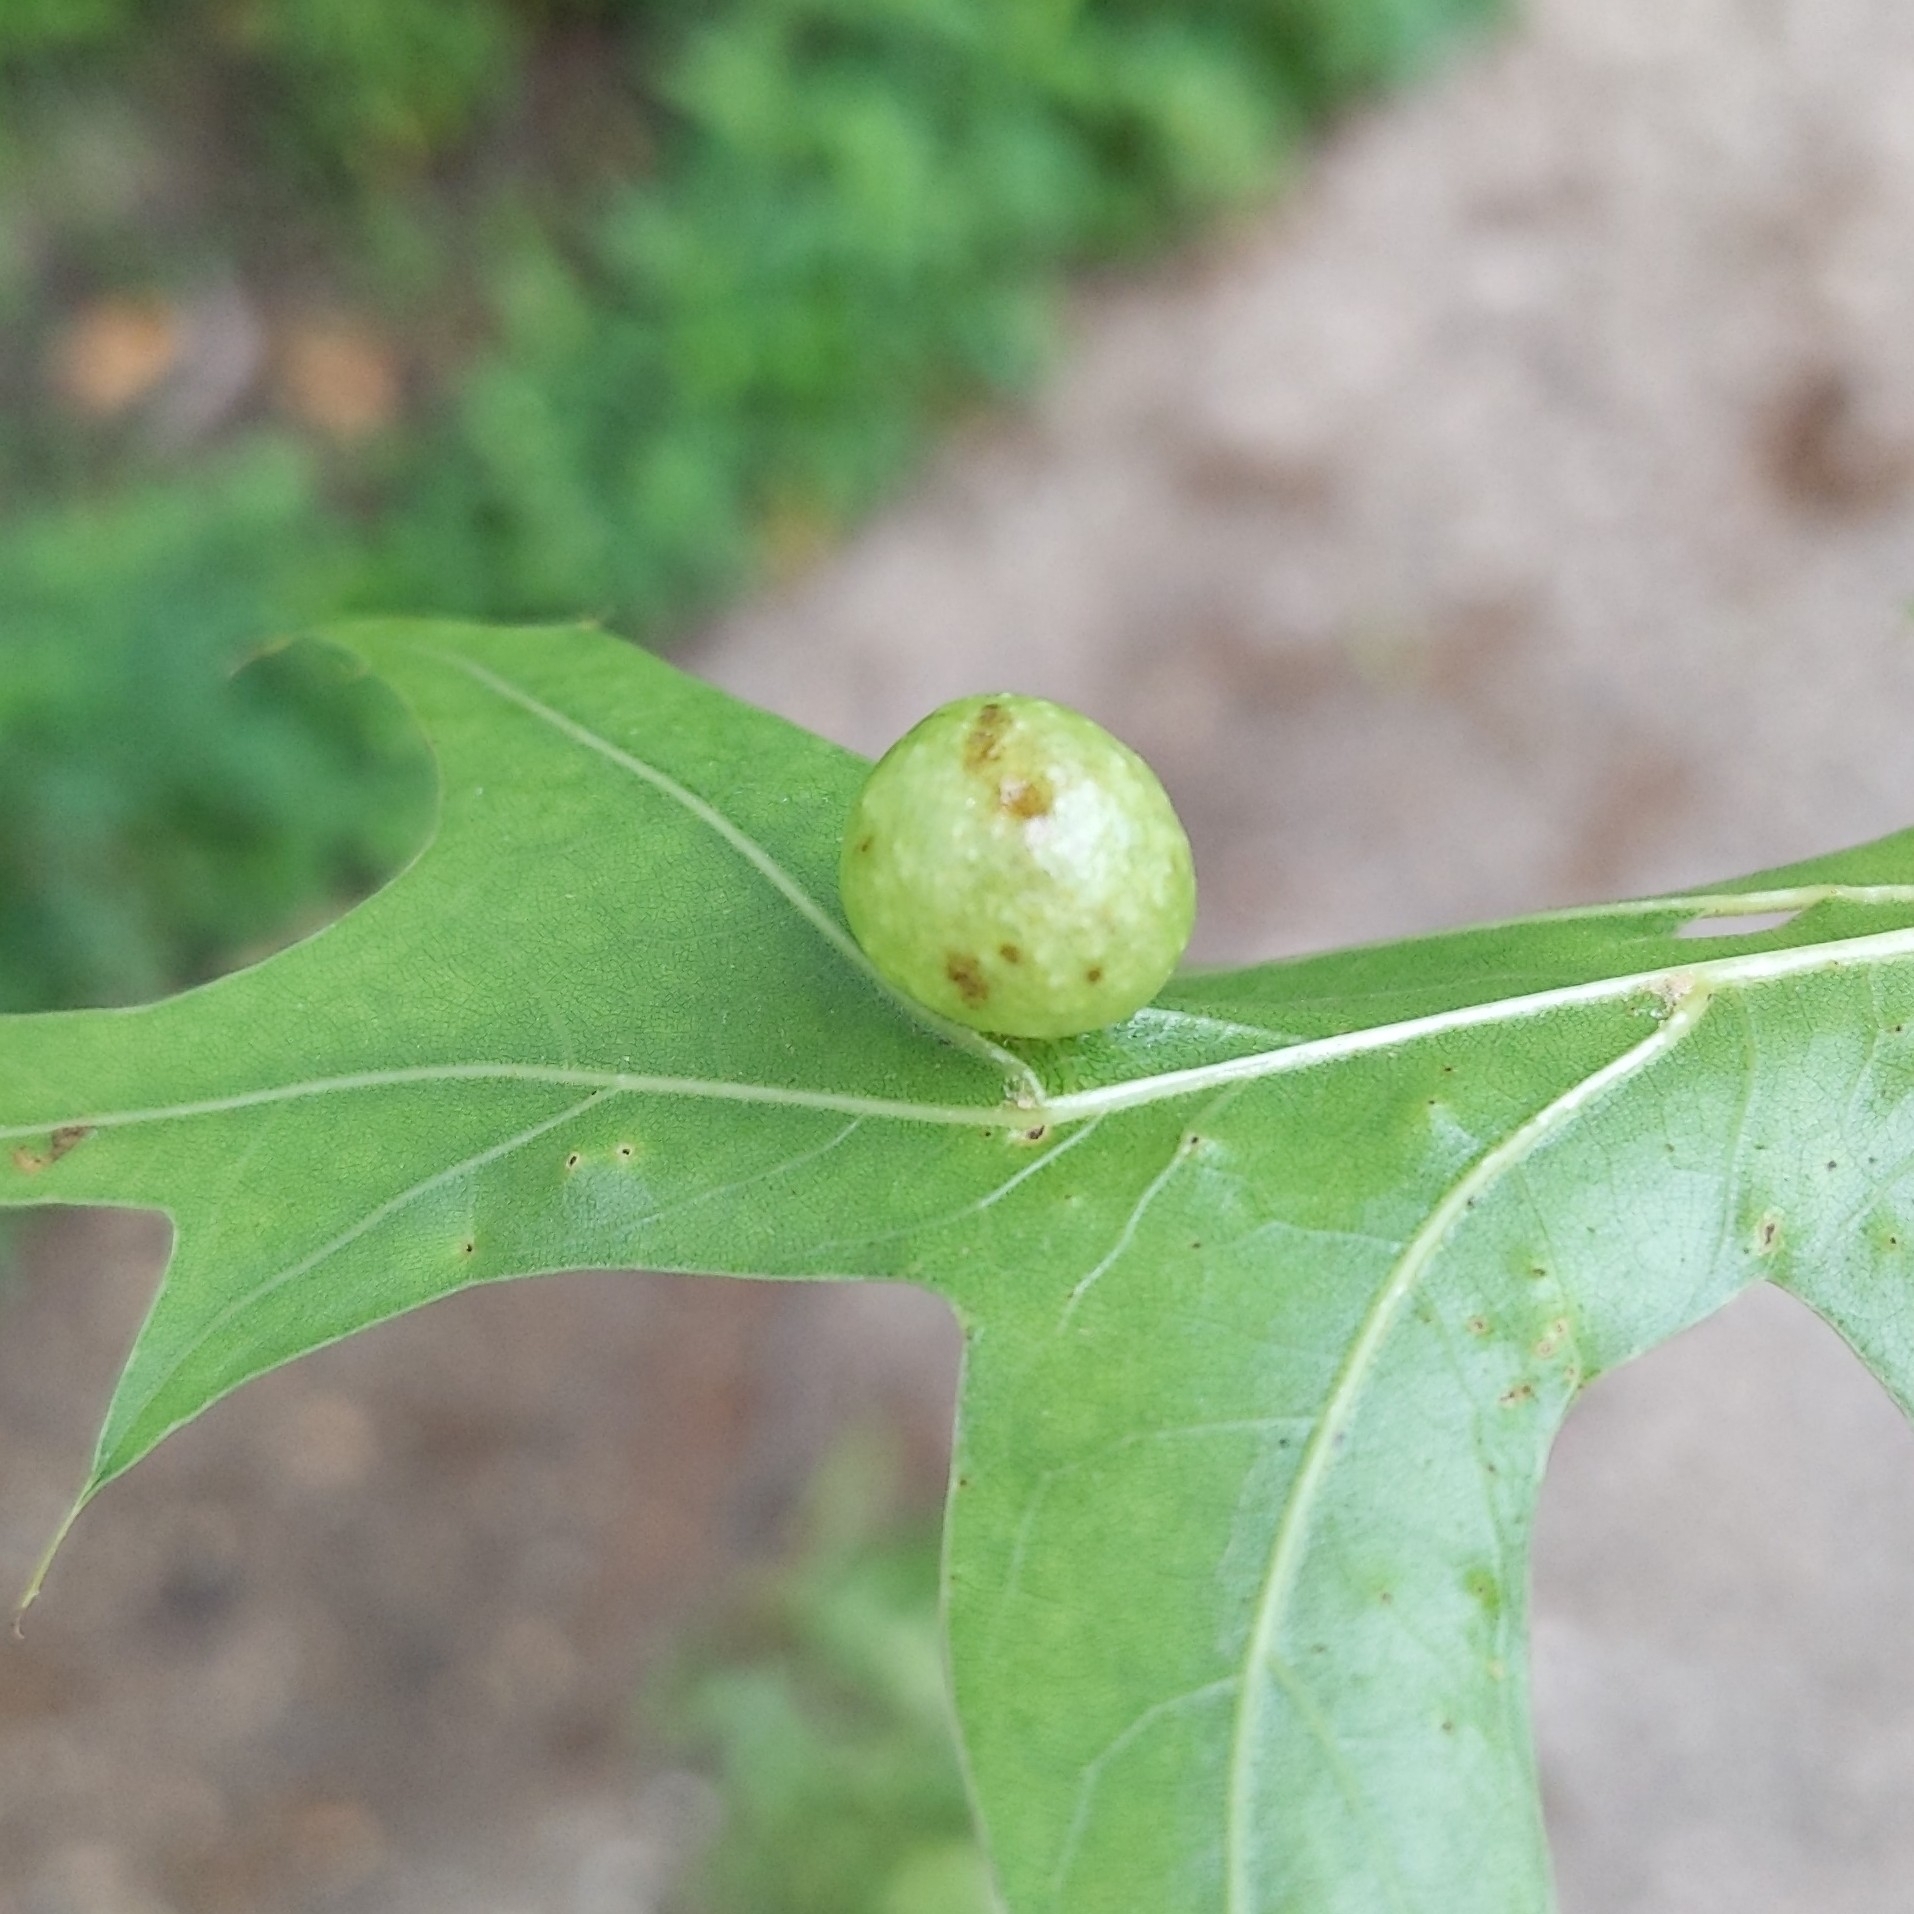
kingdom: Animalia
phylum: Arthropoda
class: Insecta
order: Hymenoptera
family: Cynipidae
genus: Amphibolips
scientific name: Amphibolips
